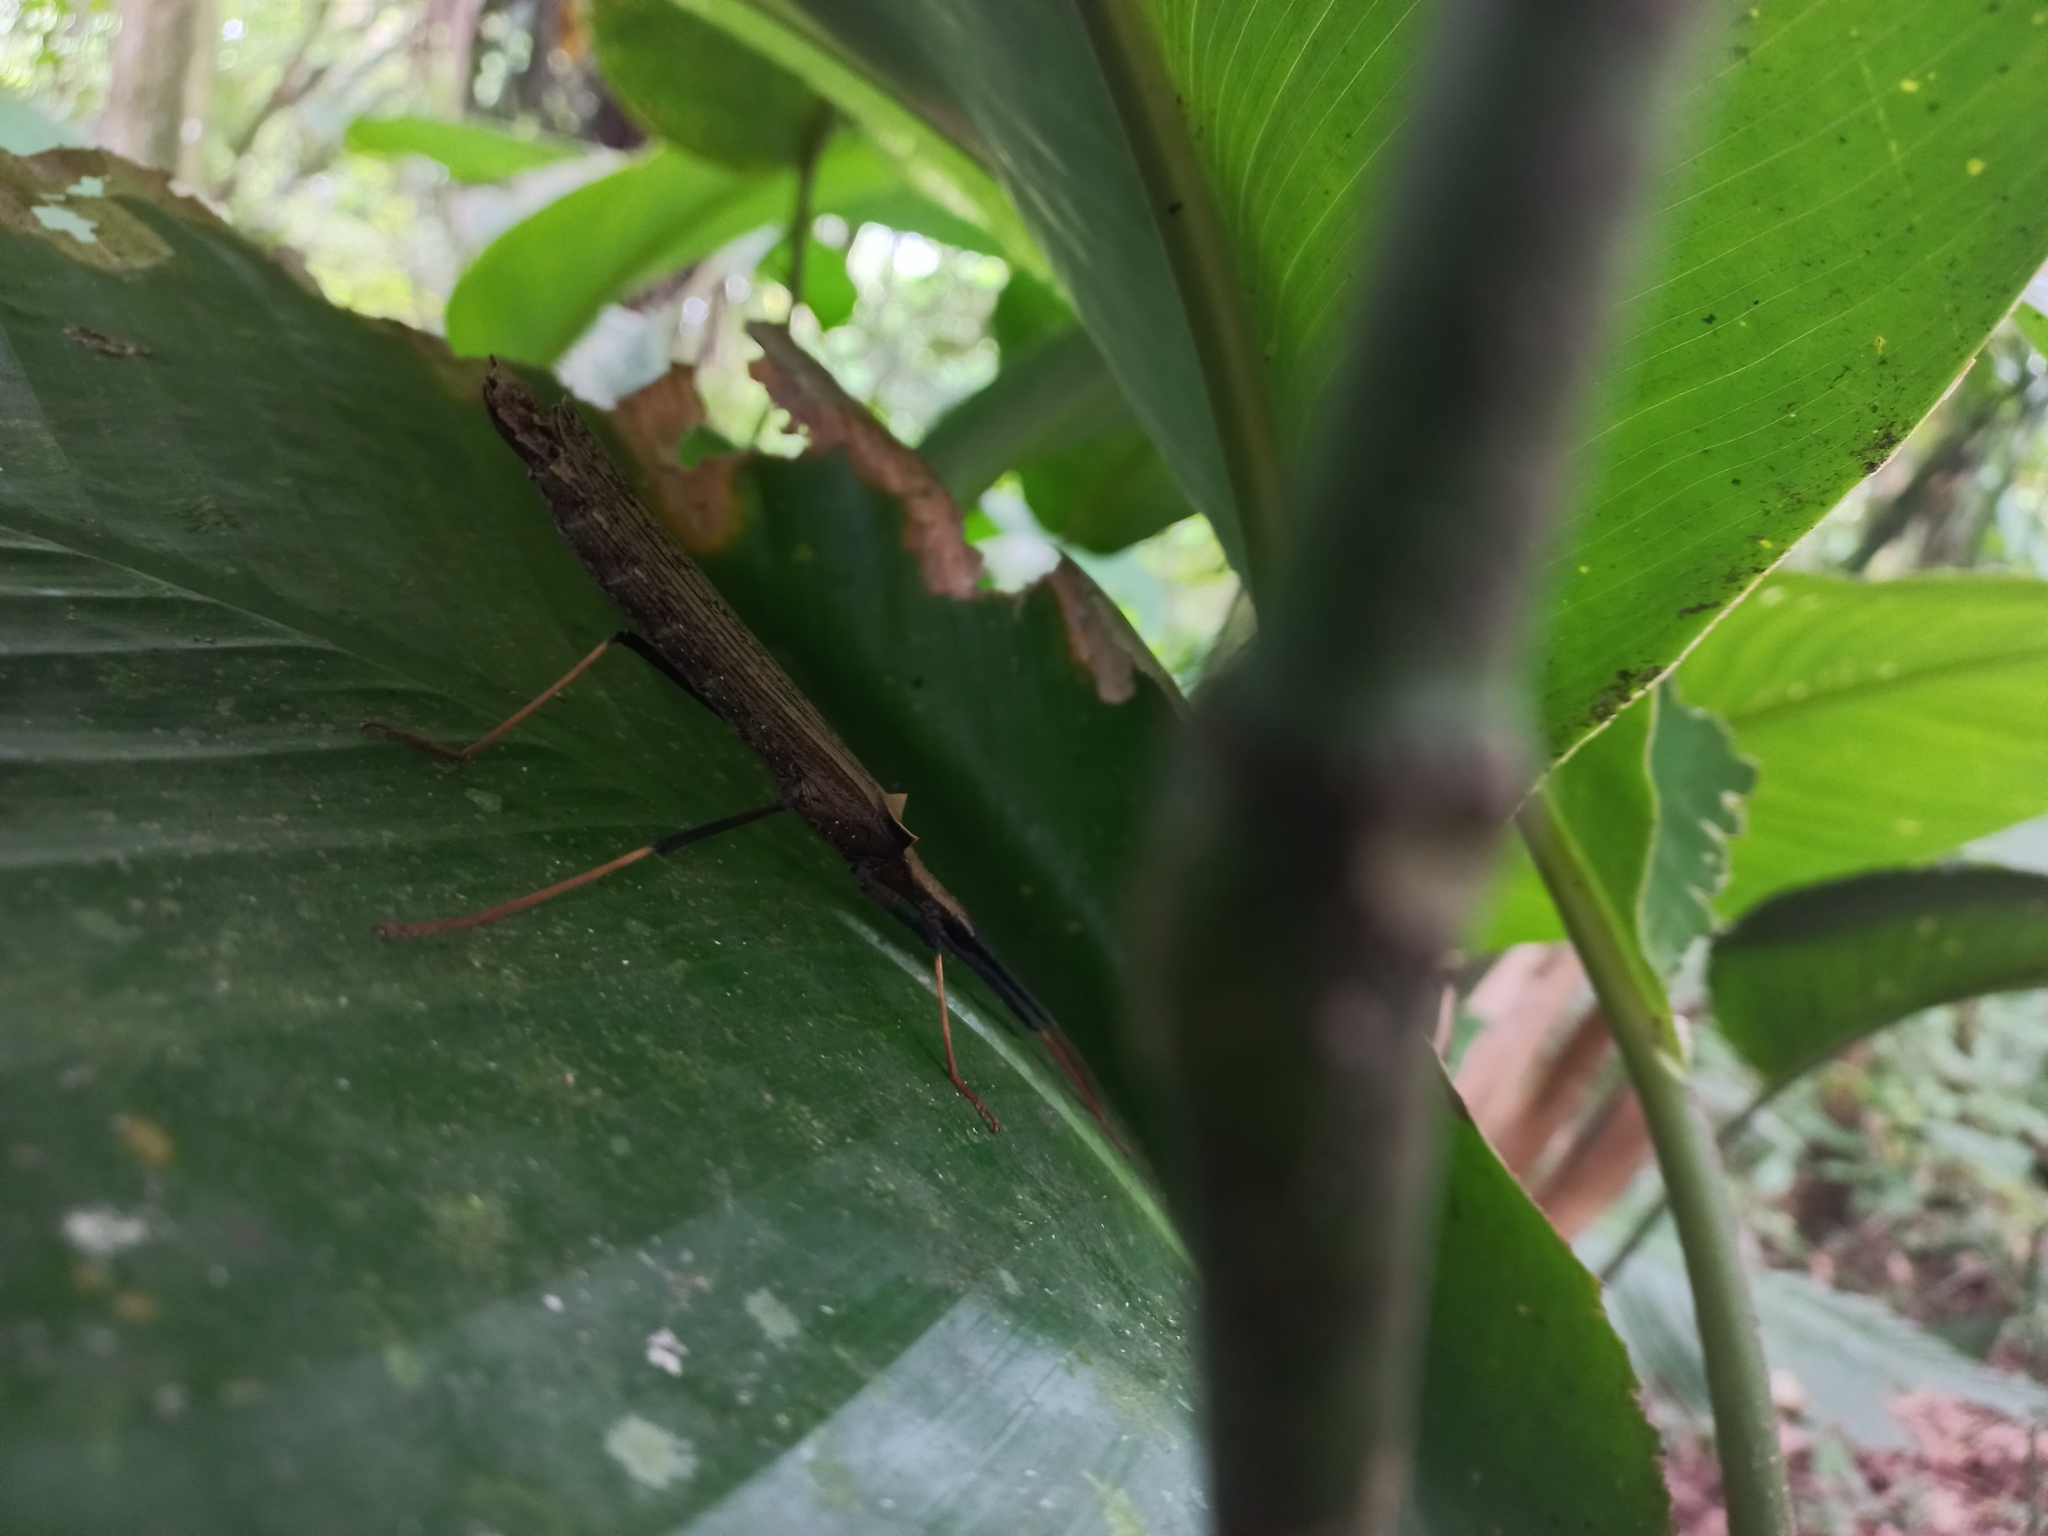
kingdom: Animalia
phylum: Arthropoda
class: Insecta
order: Phasmida
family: Pseudophasmatidae
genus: Pseudophasma
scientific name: Pseudophasma bispinosum
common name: Two-spined ecuador stick insect
